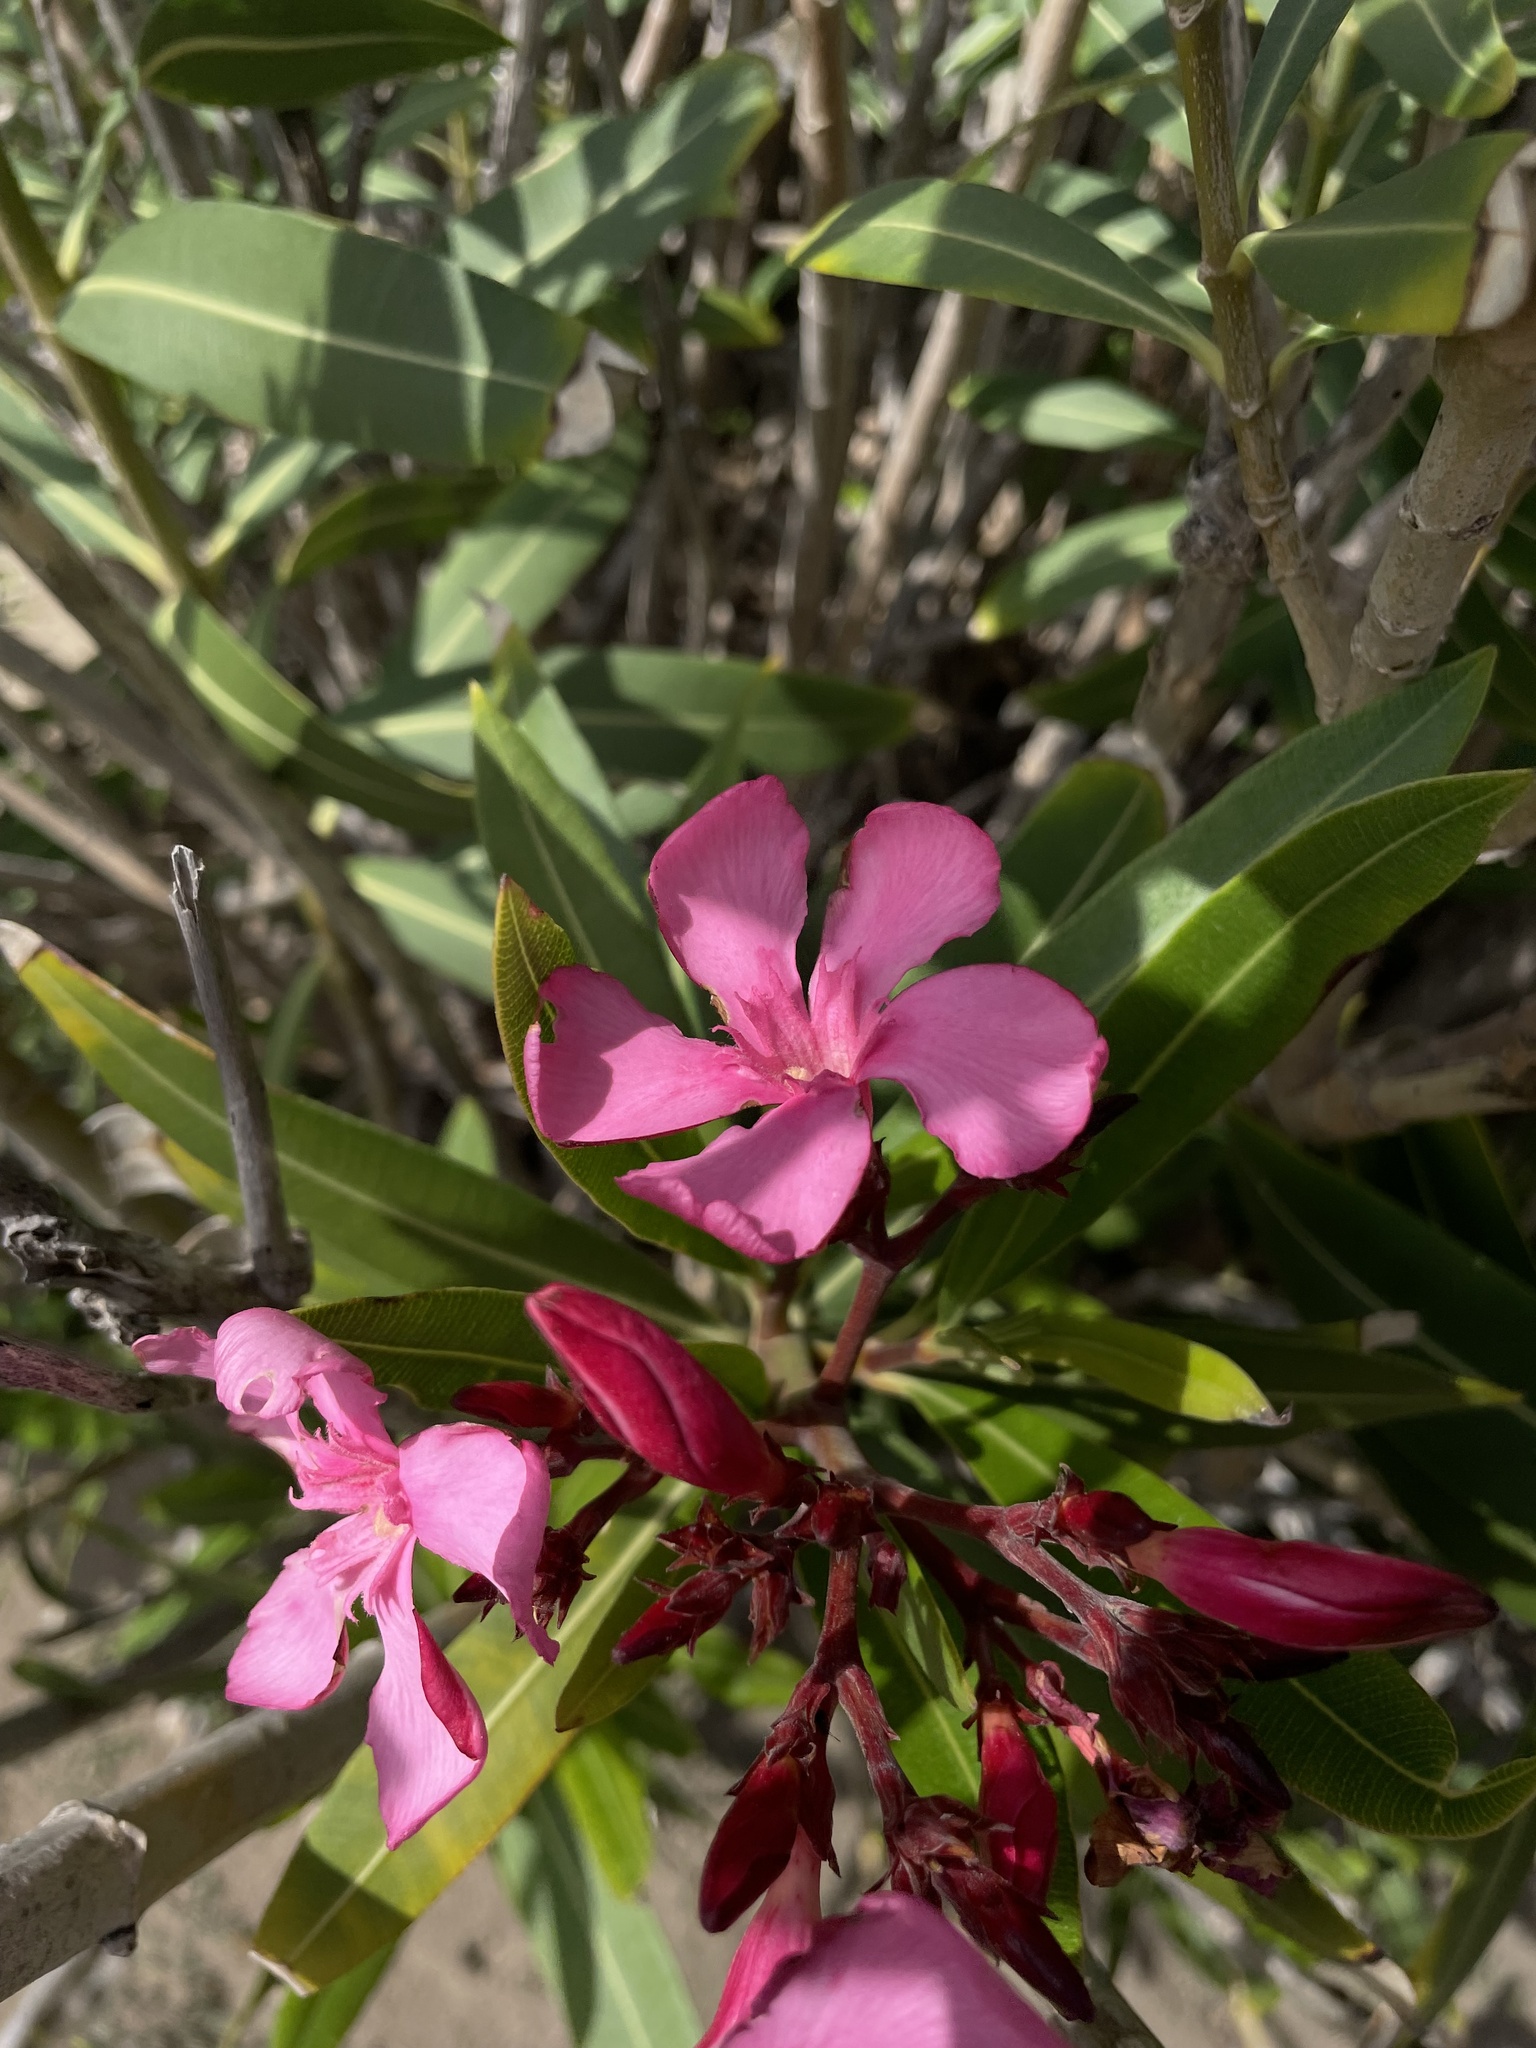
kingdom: Plantae
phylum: Tracheophyta
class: Magnoliopsida
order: Gentianales
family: Apocynaceae
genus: Nerium
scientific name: Nerium oleander
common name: Oleander
